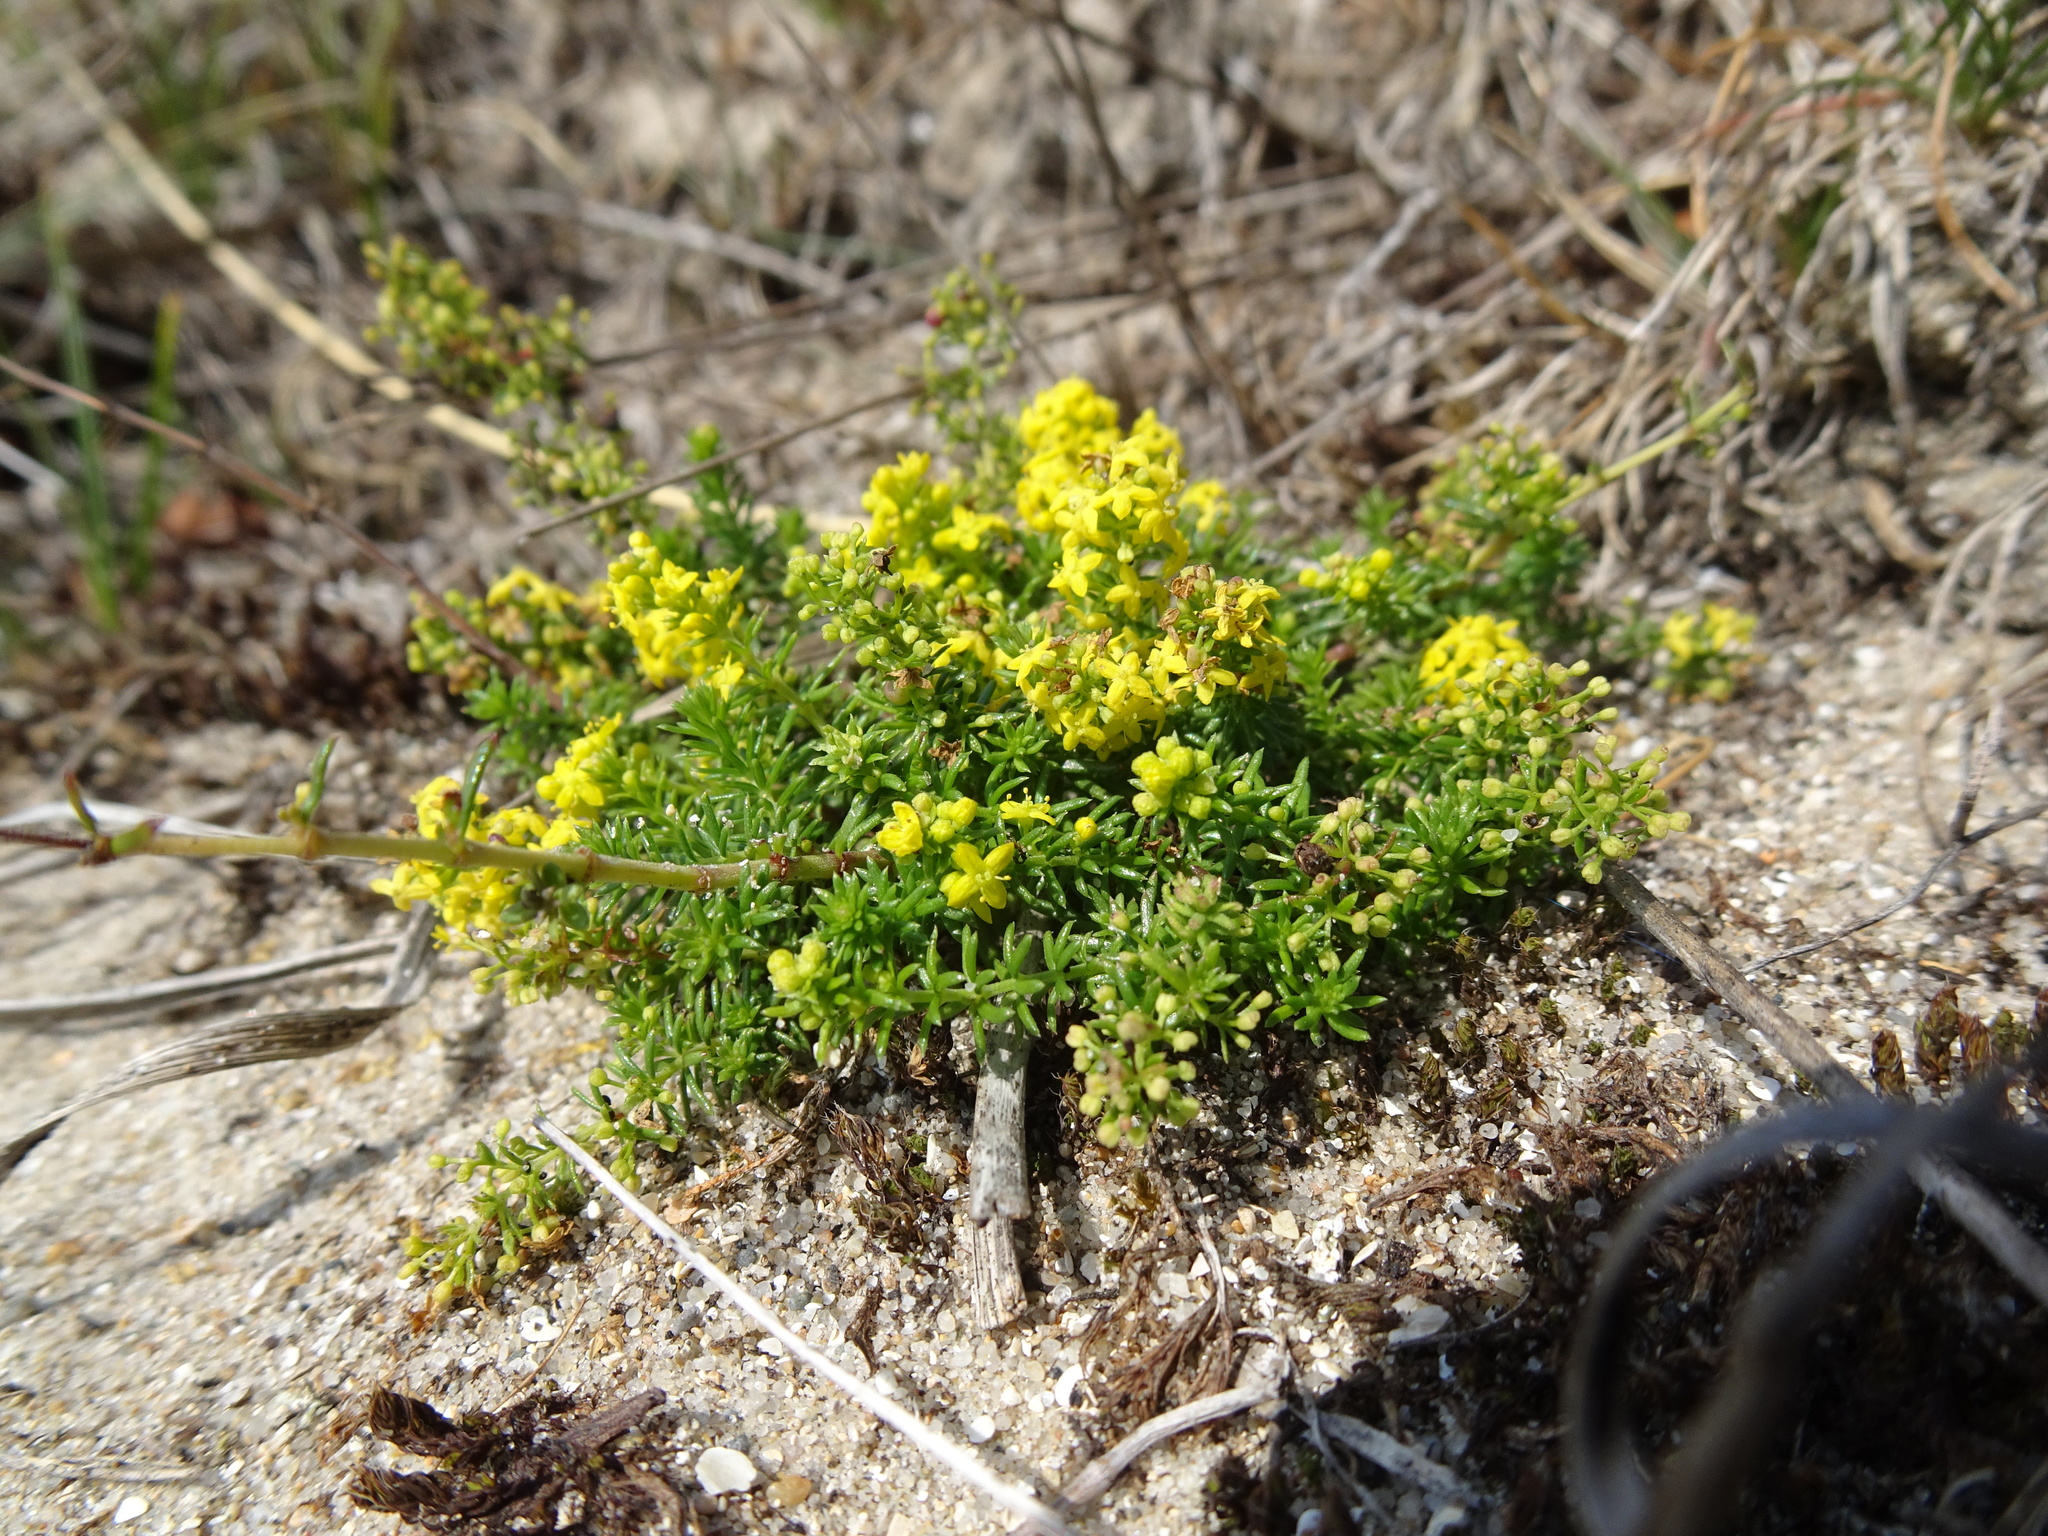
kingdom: Plantae
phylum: Tracheophyta
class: Magnoliopsida
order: Gentianales
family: Rubiaceae
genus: Galium
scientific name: Galium arenarium
